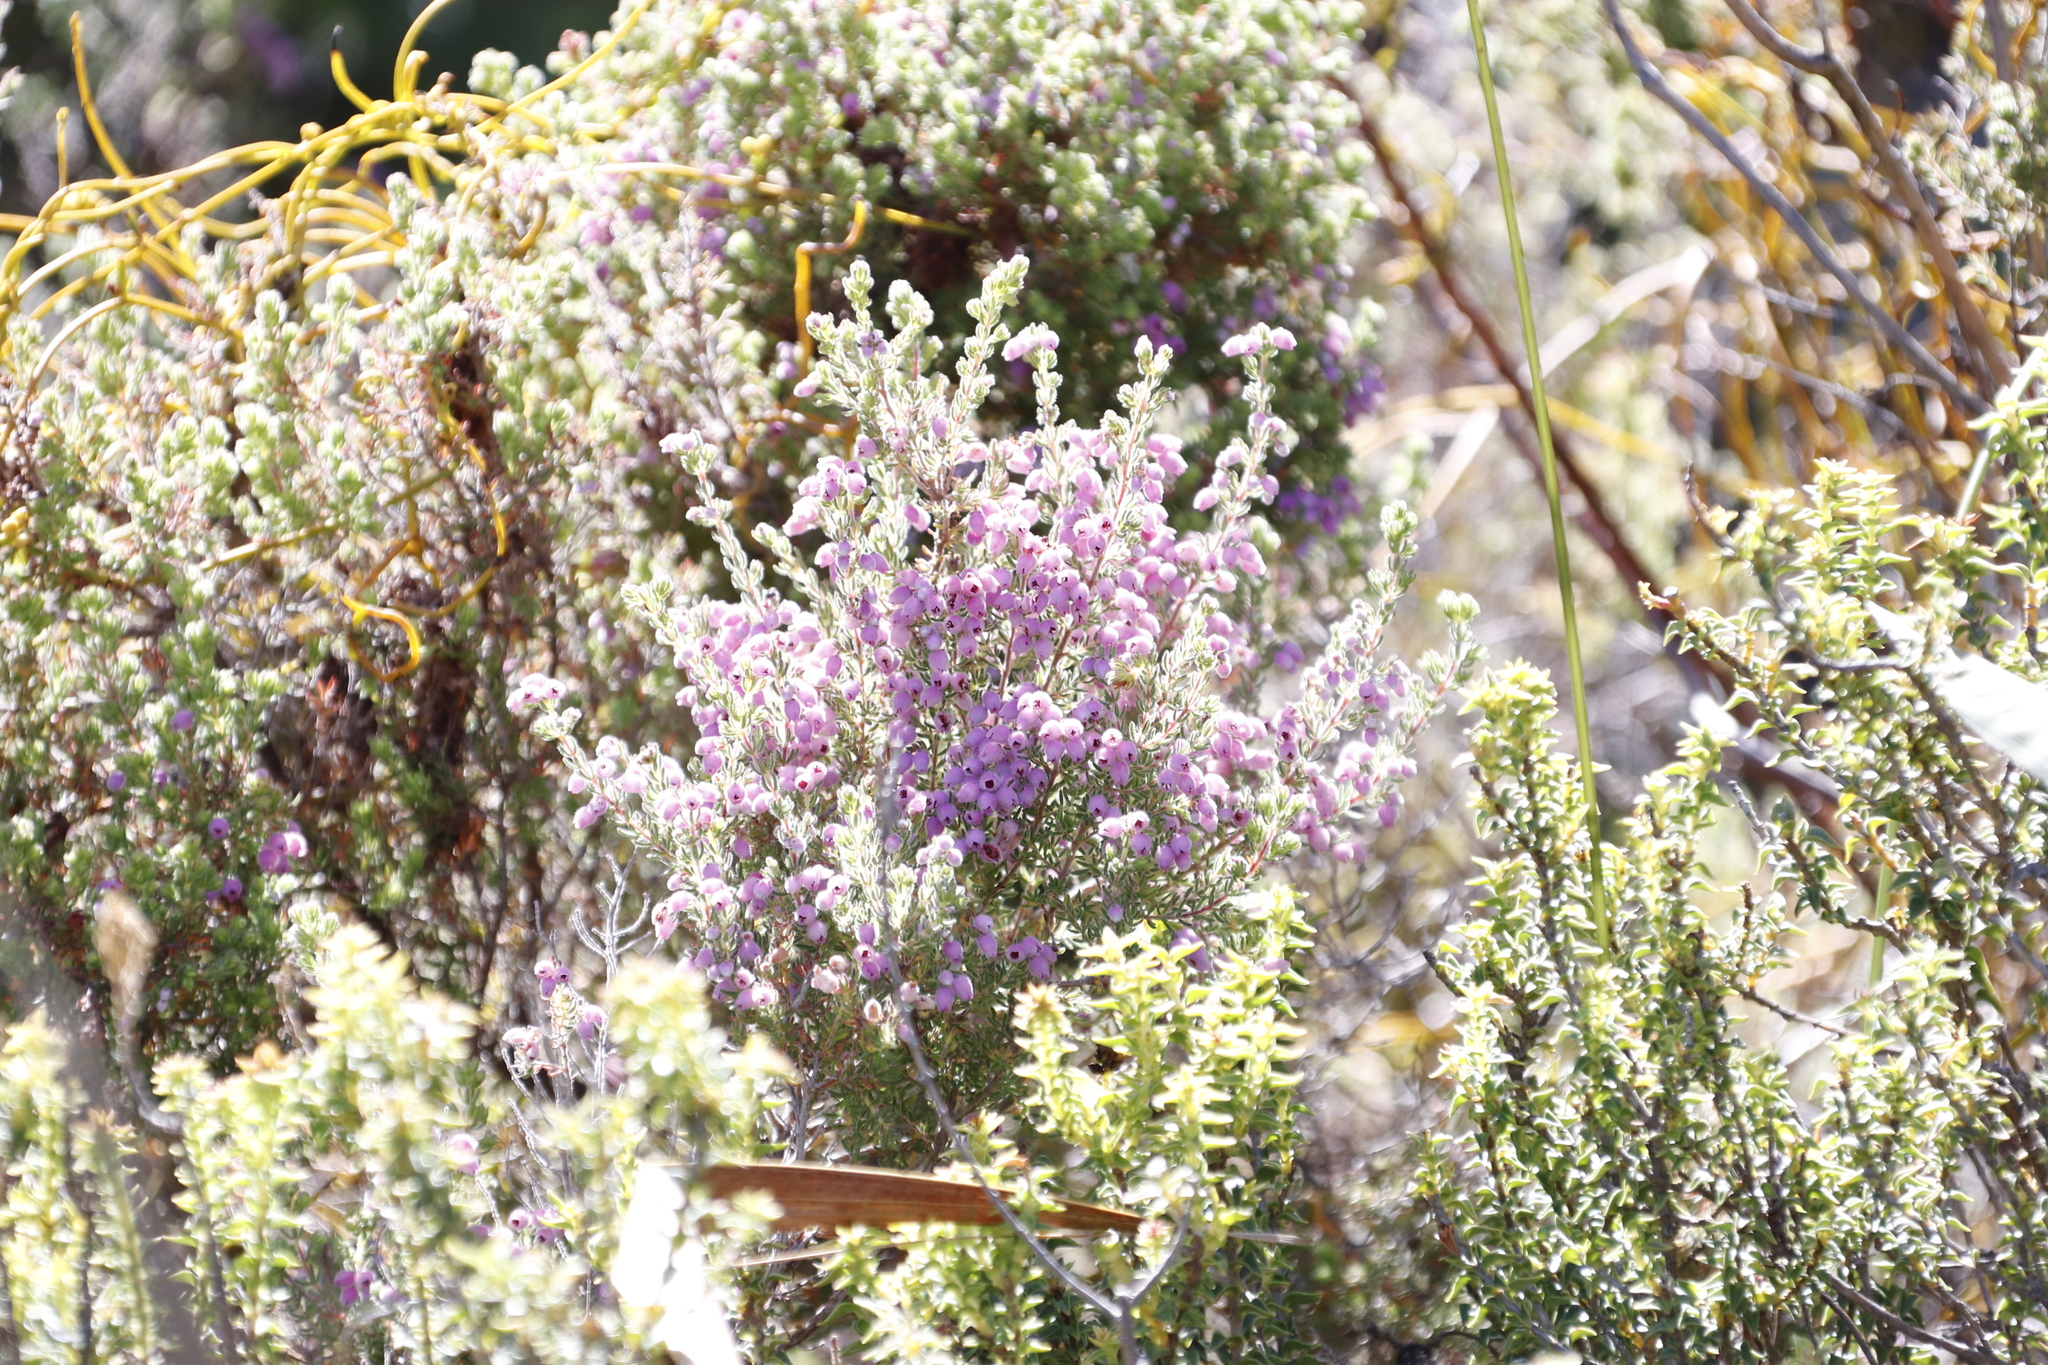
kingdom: Plantae
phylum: Tracheophyta
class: Magnoliopsida
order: Ericales
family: Ericaceae
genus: Erica
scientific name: Erica hirtiflora
